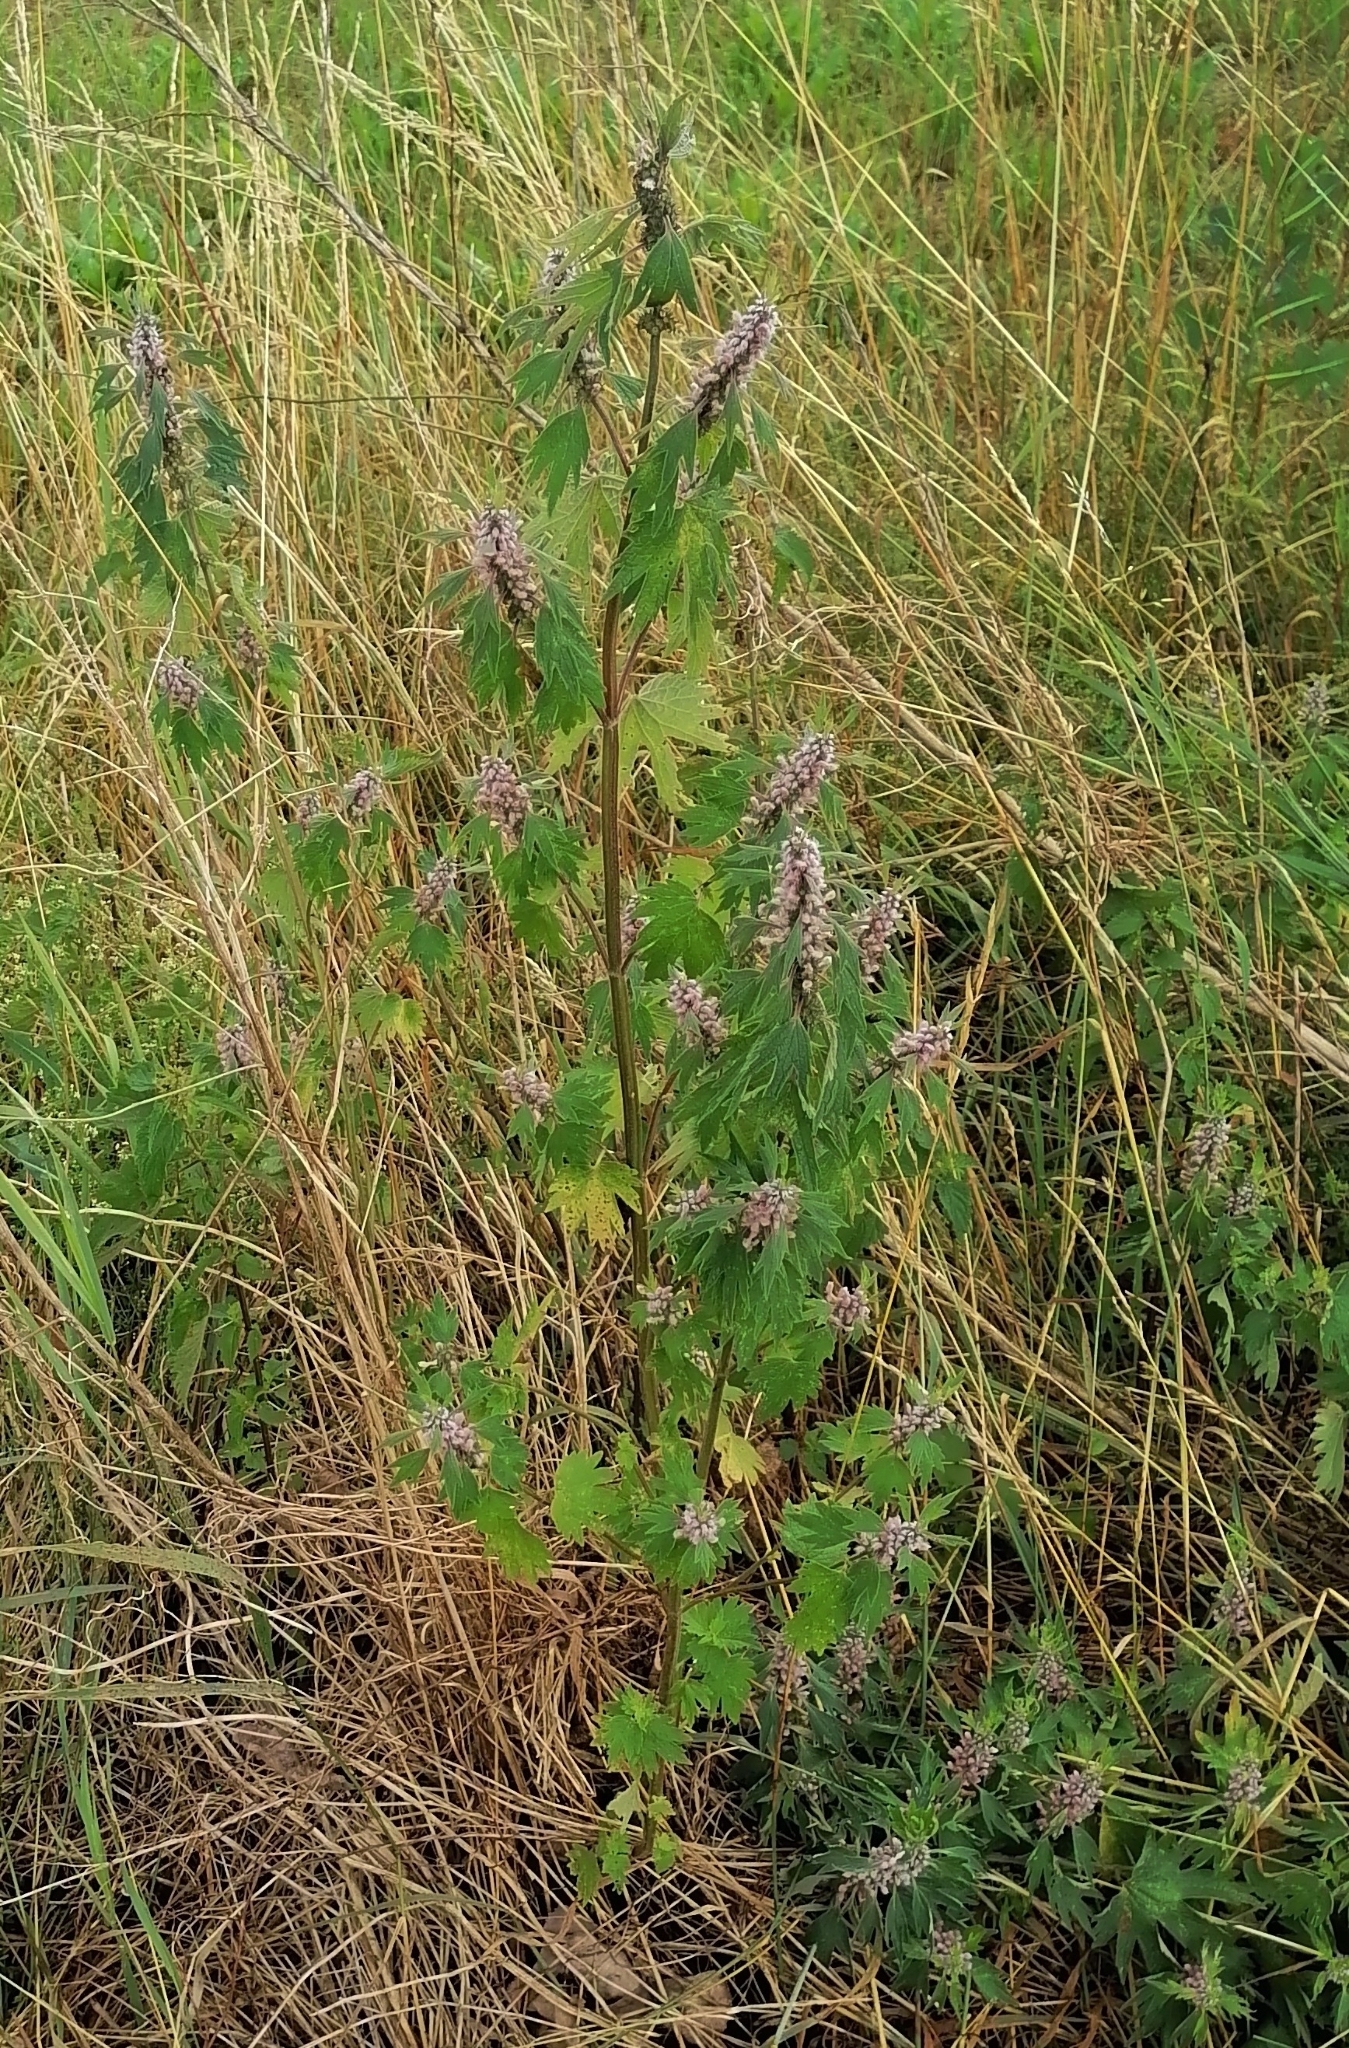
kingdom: Plantae
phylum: Tracheophyta
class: Magnoliopsida
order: Lamiales
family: Lamiaceae
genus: Leonurus
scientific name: Leonurus cardiaca
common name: Motherwort
